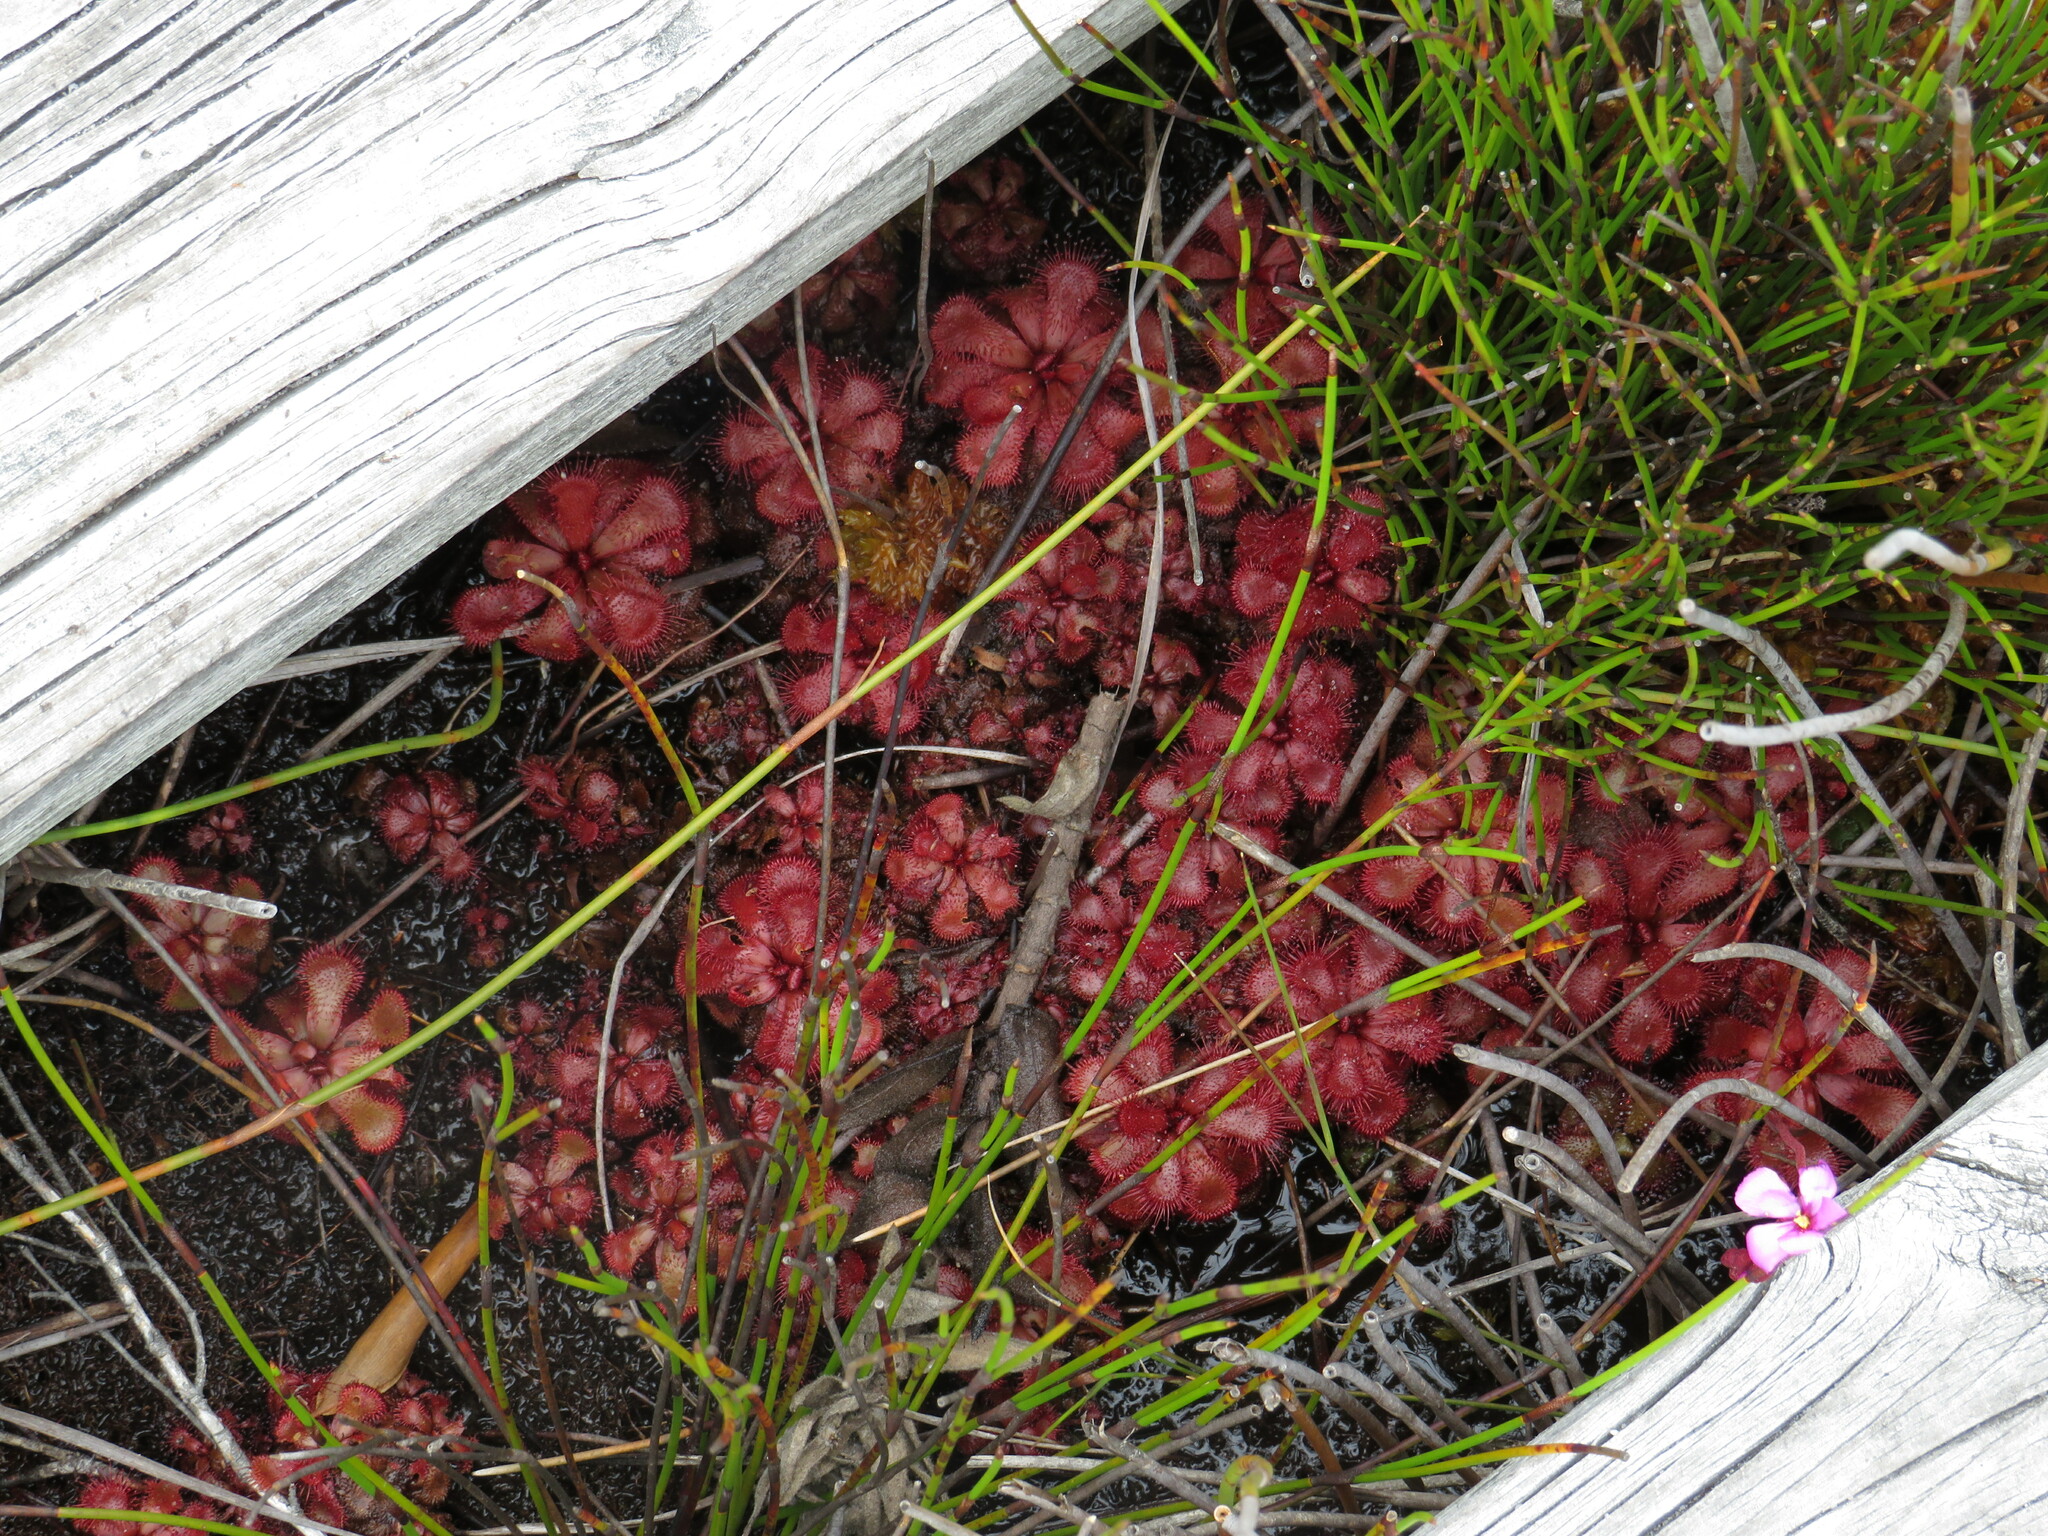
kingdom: Plantae
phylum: Tracheophyta
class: Magnoliopsida
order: Caryophyllales
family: Droseraceae
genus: Drosera
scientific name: Drosera slackii
